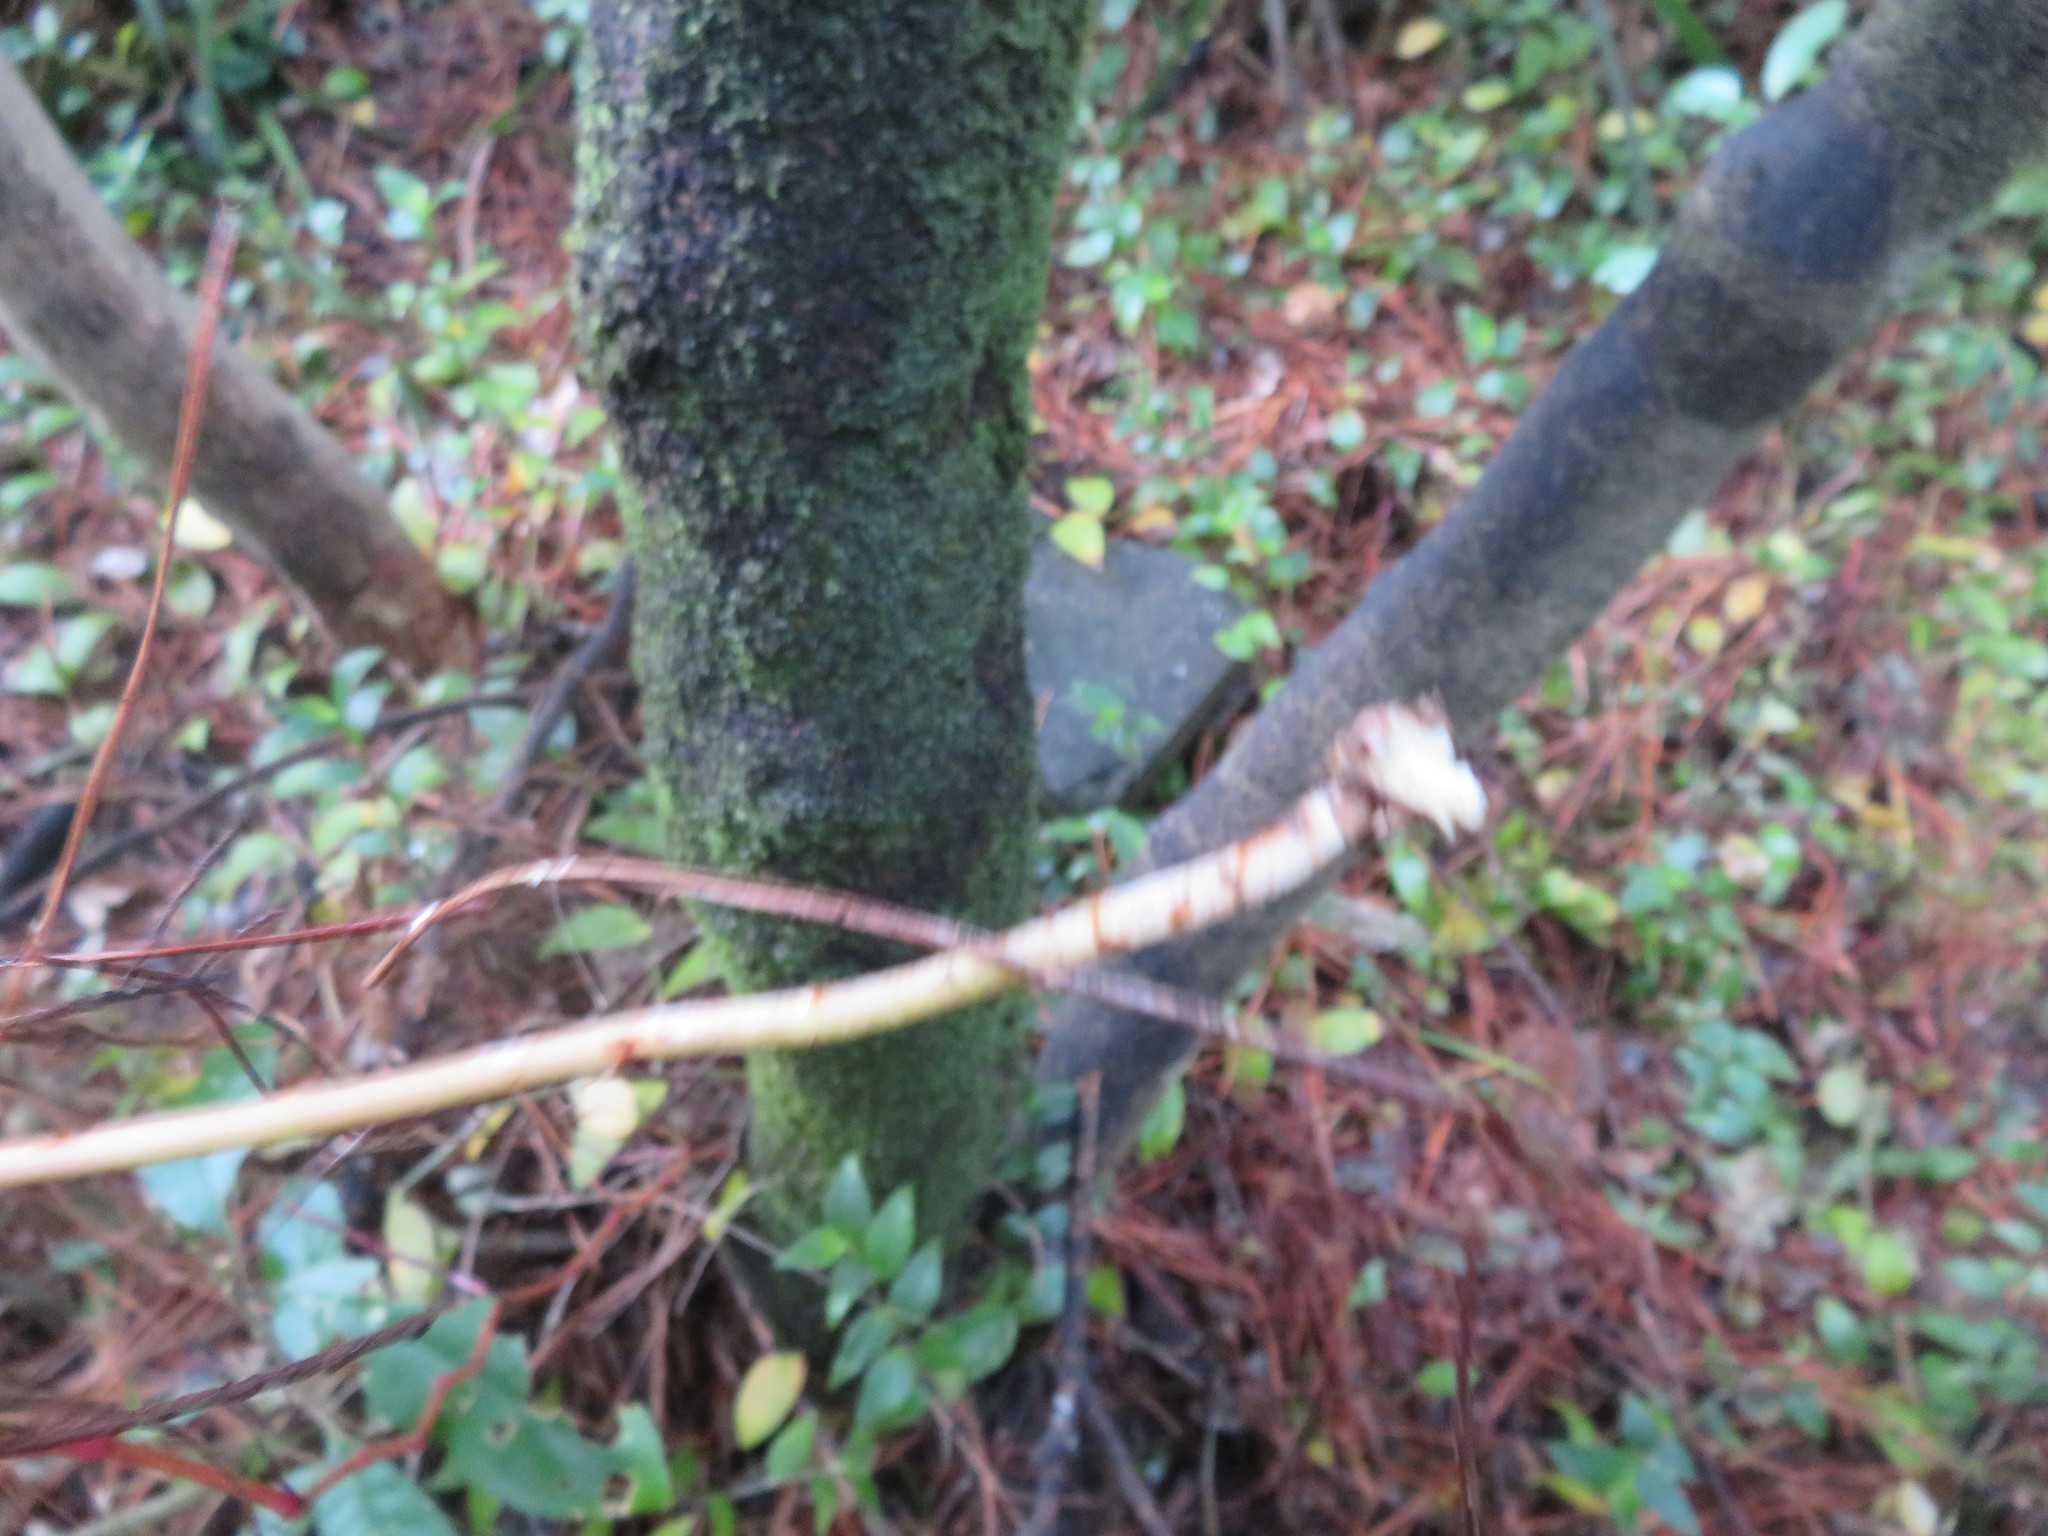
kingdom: Plantae
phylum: Tracheophyta
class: Liliopsida
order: Asparagales
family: Asparagaceae
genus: Asparagus
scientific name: Asparagus scandens
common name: Asparagus-fern
